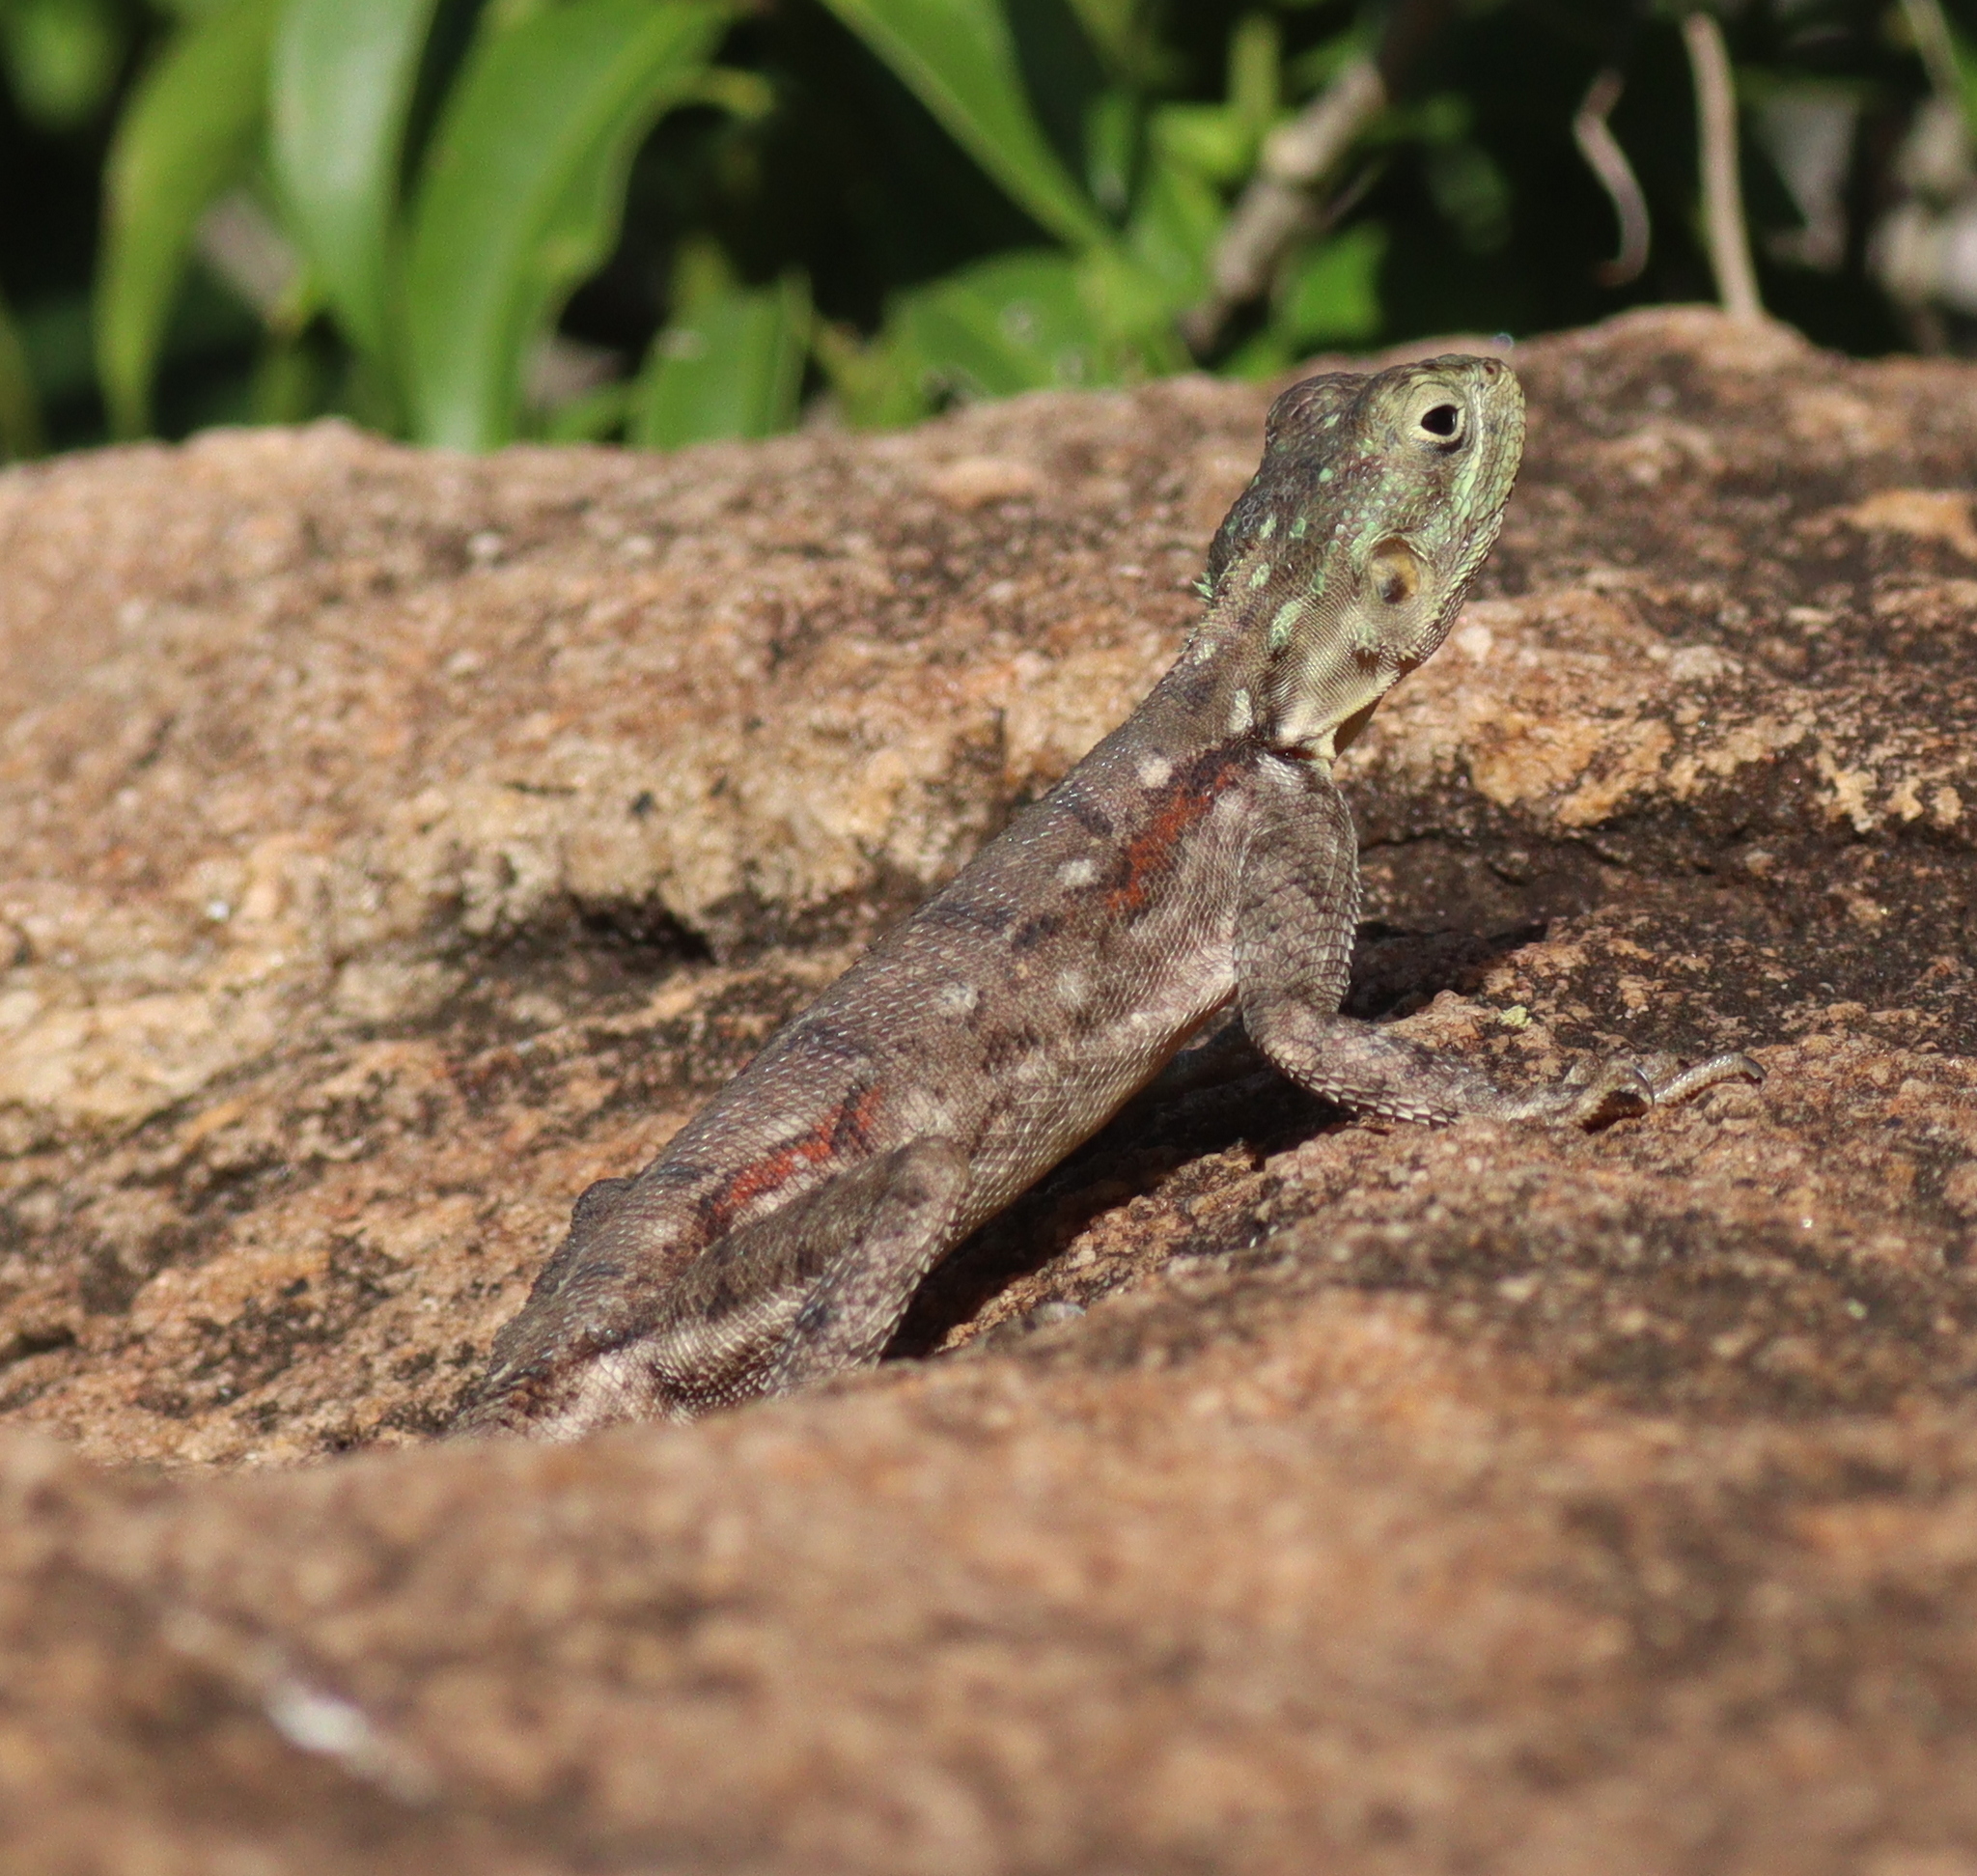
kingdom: Animalia
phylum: Chordata
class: Squamata
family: Agamidae
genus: Agama
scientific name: Agama lionotus
